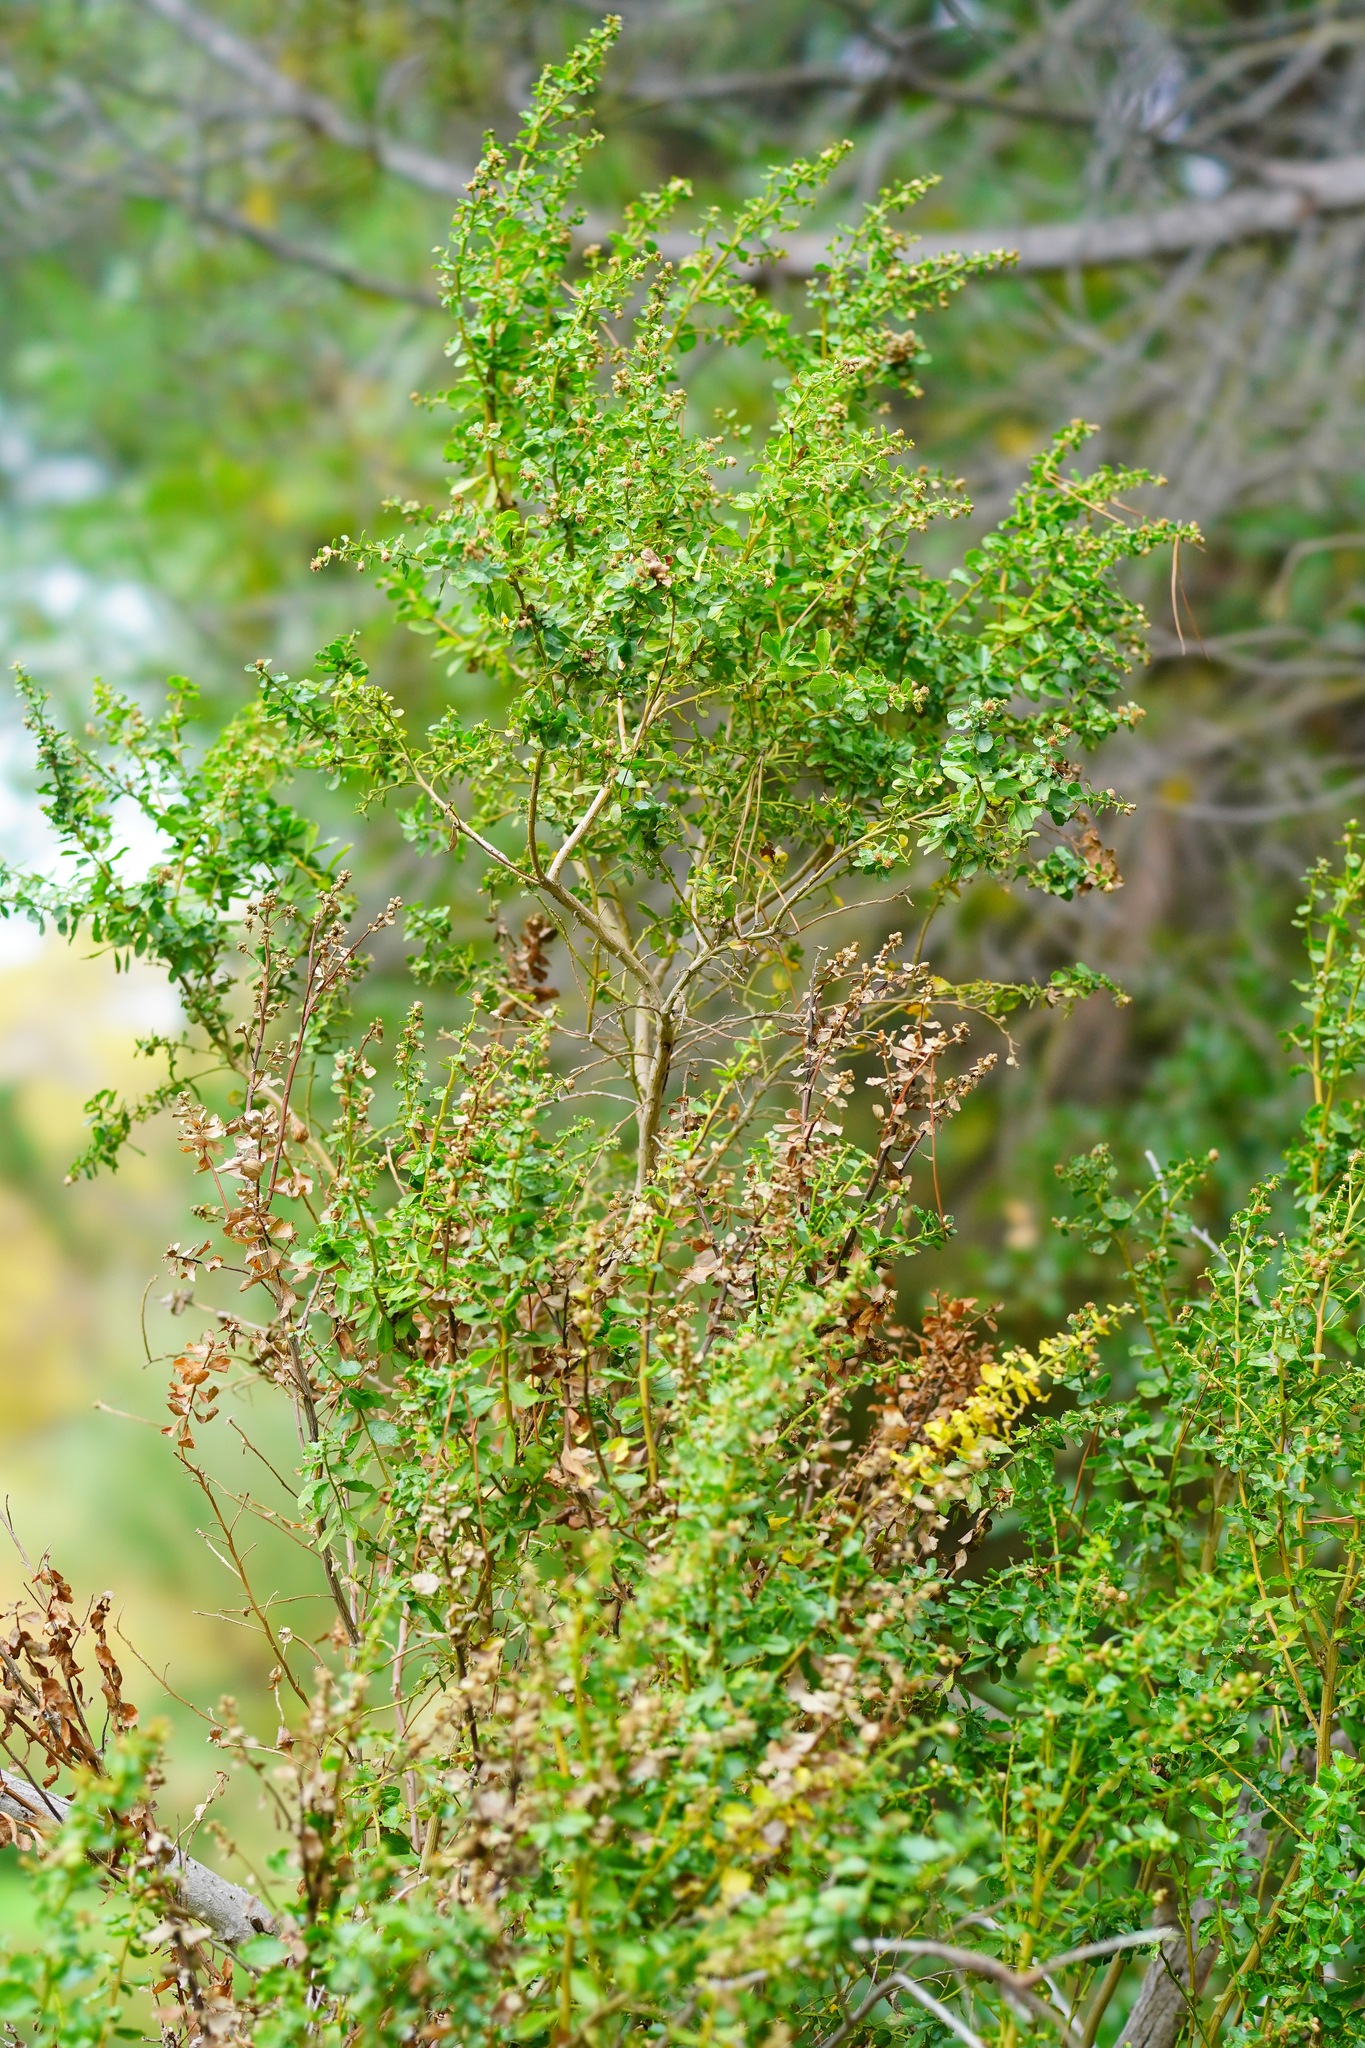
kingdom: Plantae
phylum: Tracheophyta
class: Magnoliopsida
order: Asterales
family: Asteraceae
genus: Baccharis
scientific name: Baccharis pilularis
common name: Coyotebrush
